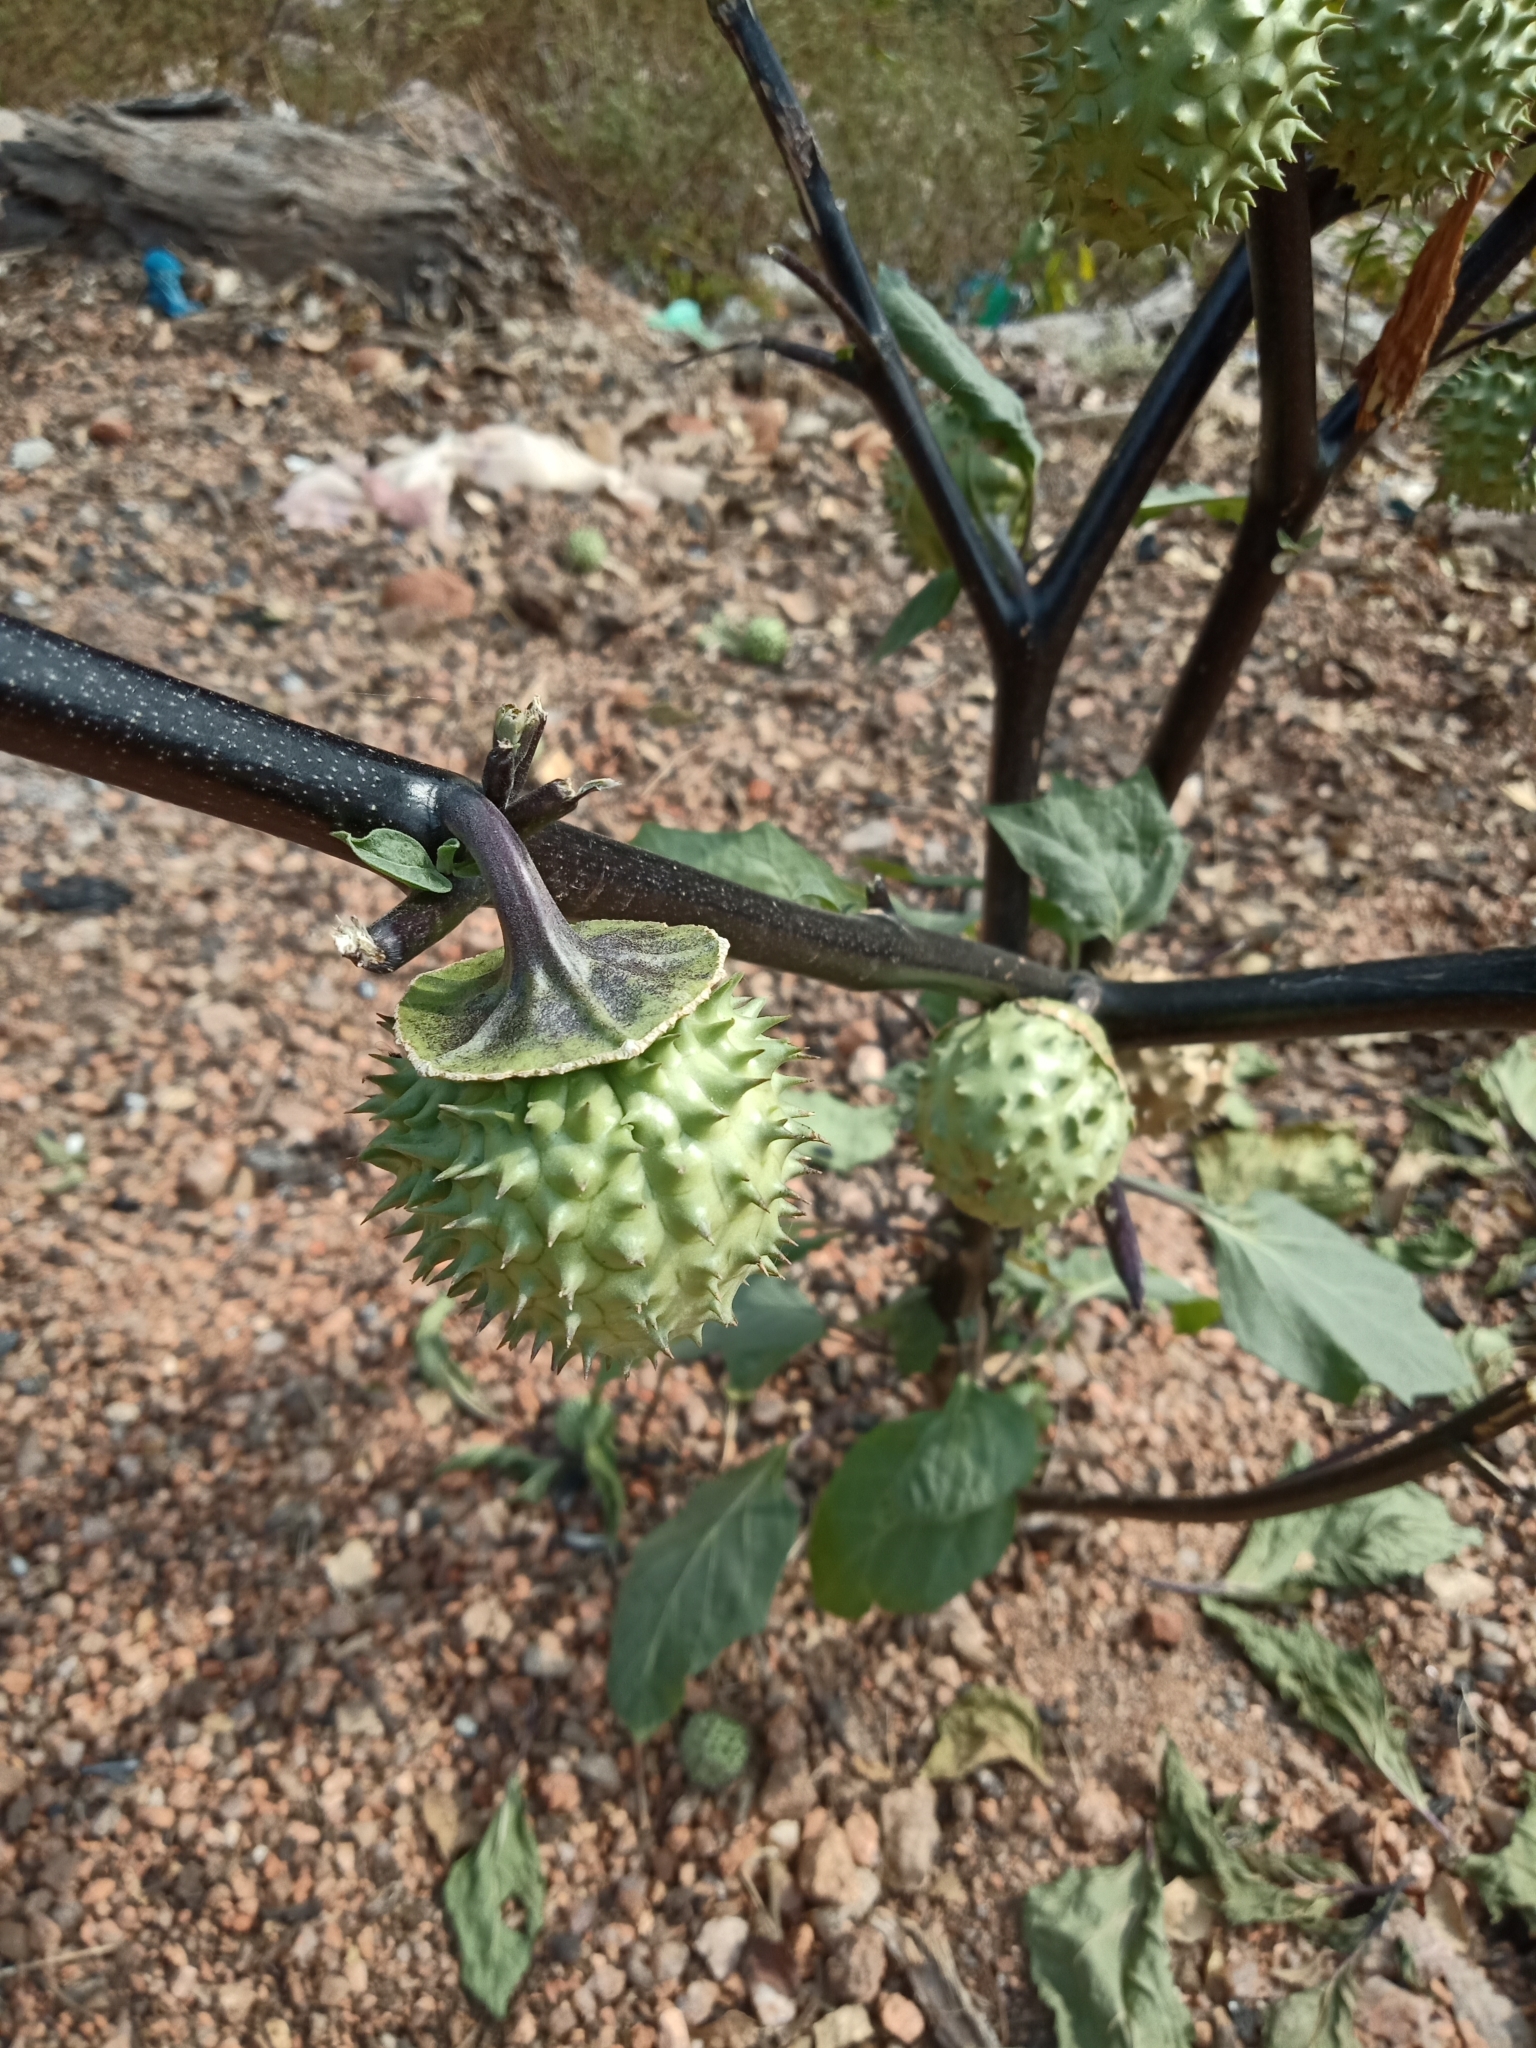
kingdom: Plantae
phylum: Tracheophyta
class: Magnoliopsida
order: Solanales
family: Solanaceae
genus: Datura
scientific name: Datura metel
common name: Jimsonweed
